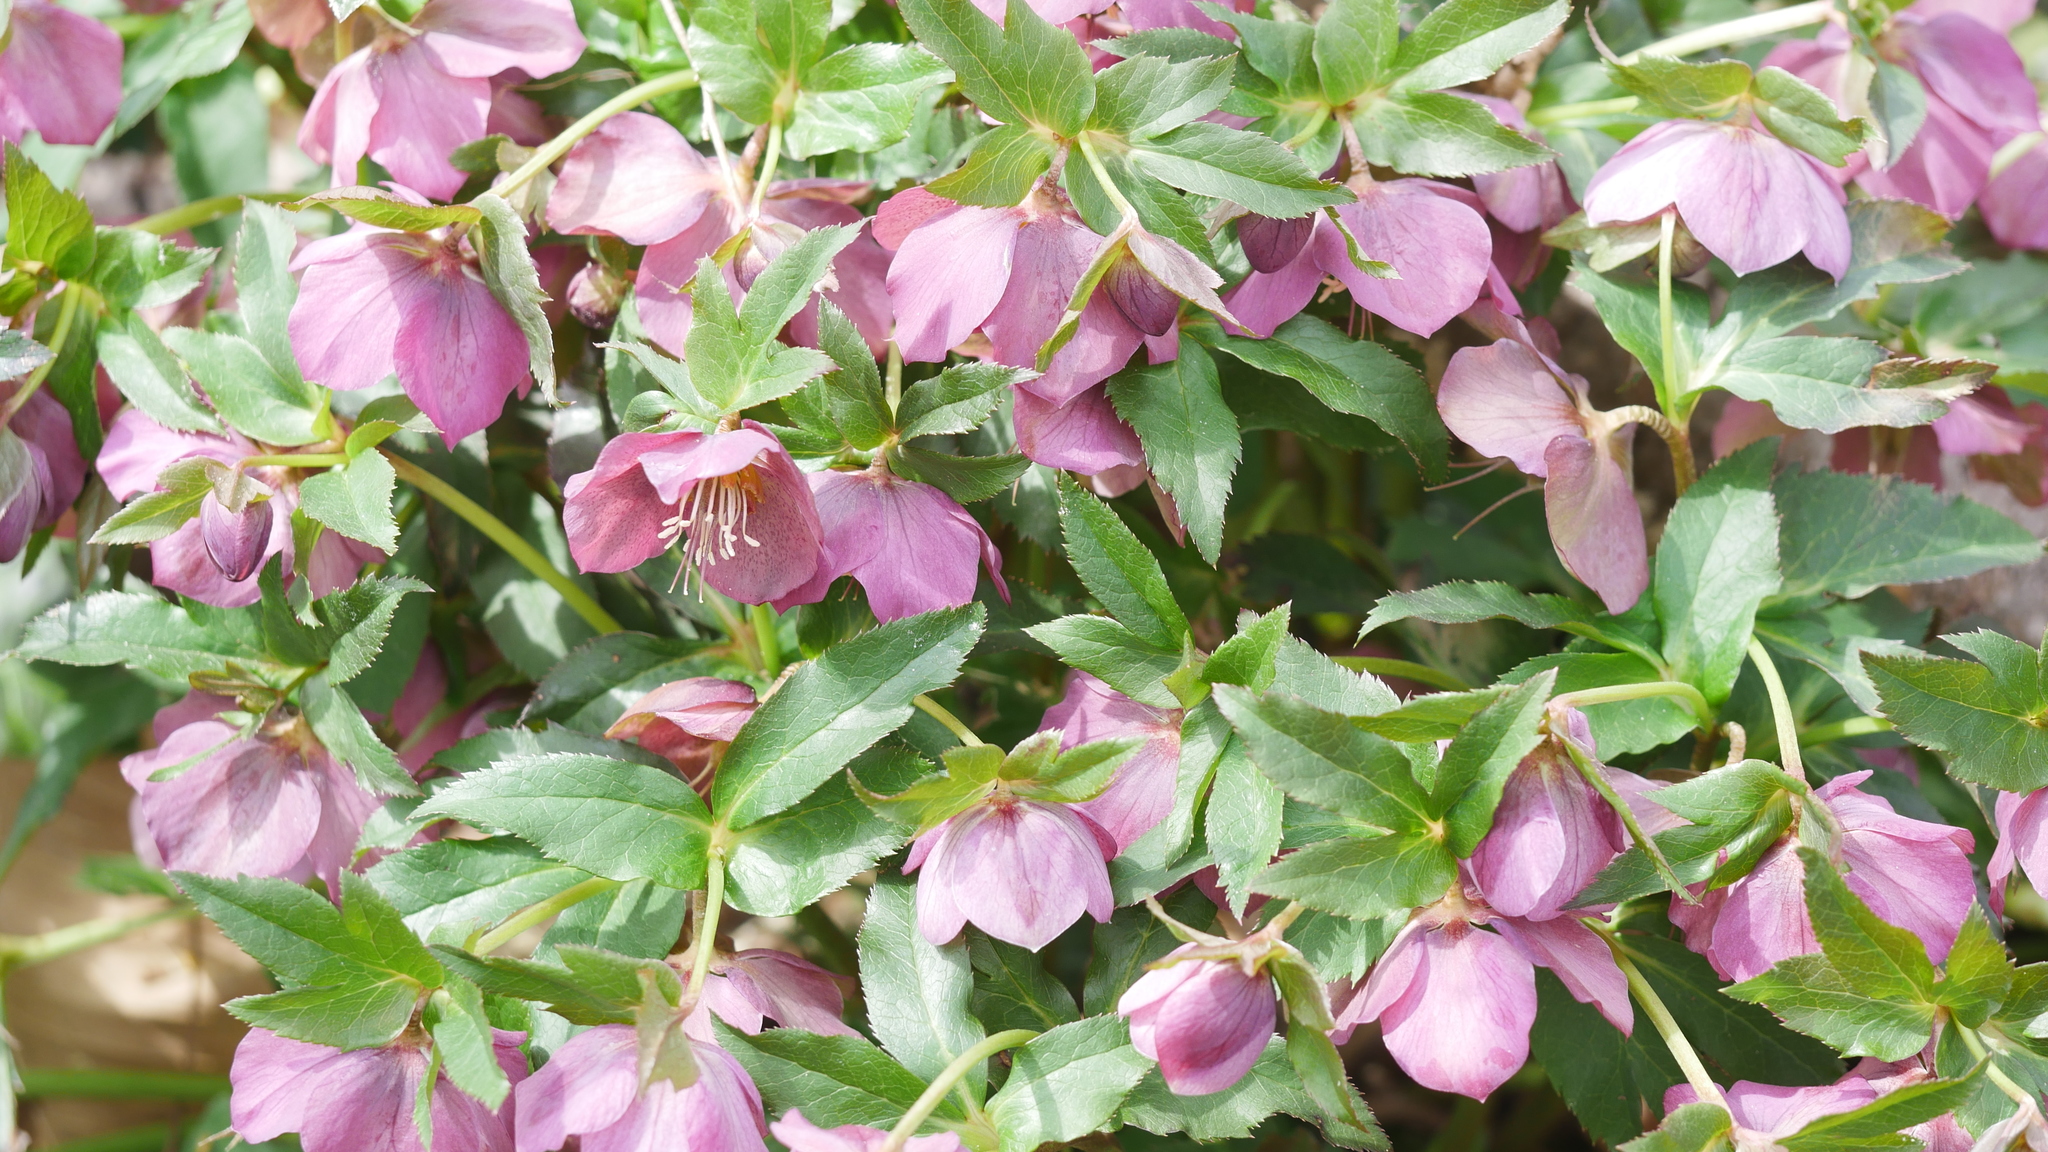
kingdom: Plantae
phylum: Tracheophyta
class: Magnoliopsida
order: Ranunculales
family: Ranunculaceae
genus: Helleborus
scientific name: Helleborus orientalis
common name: Lenten-rose
